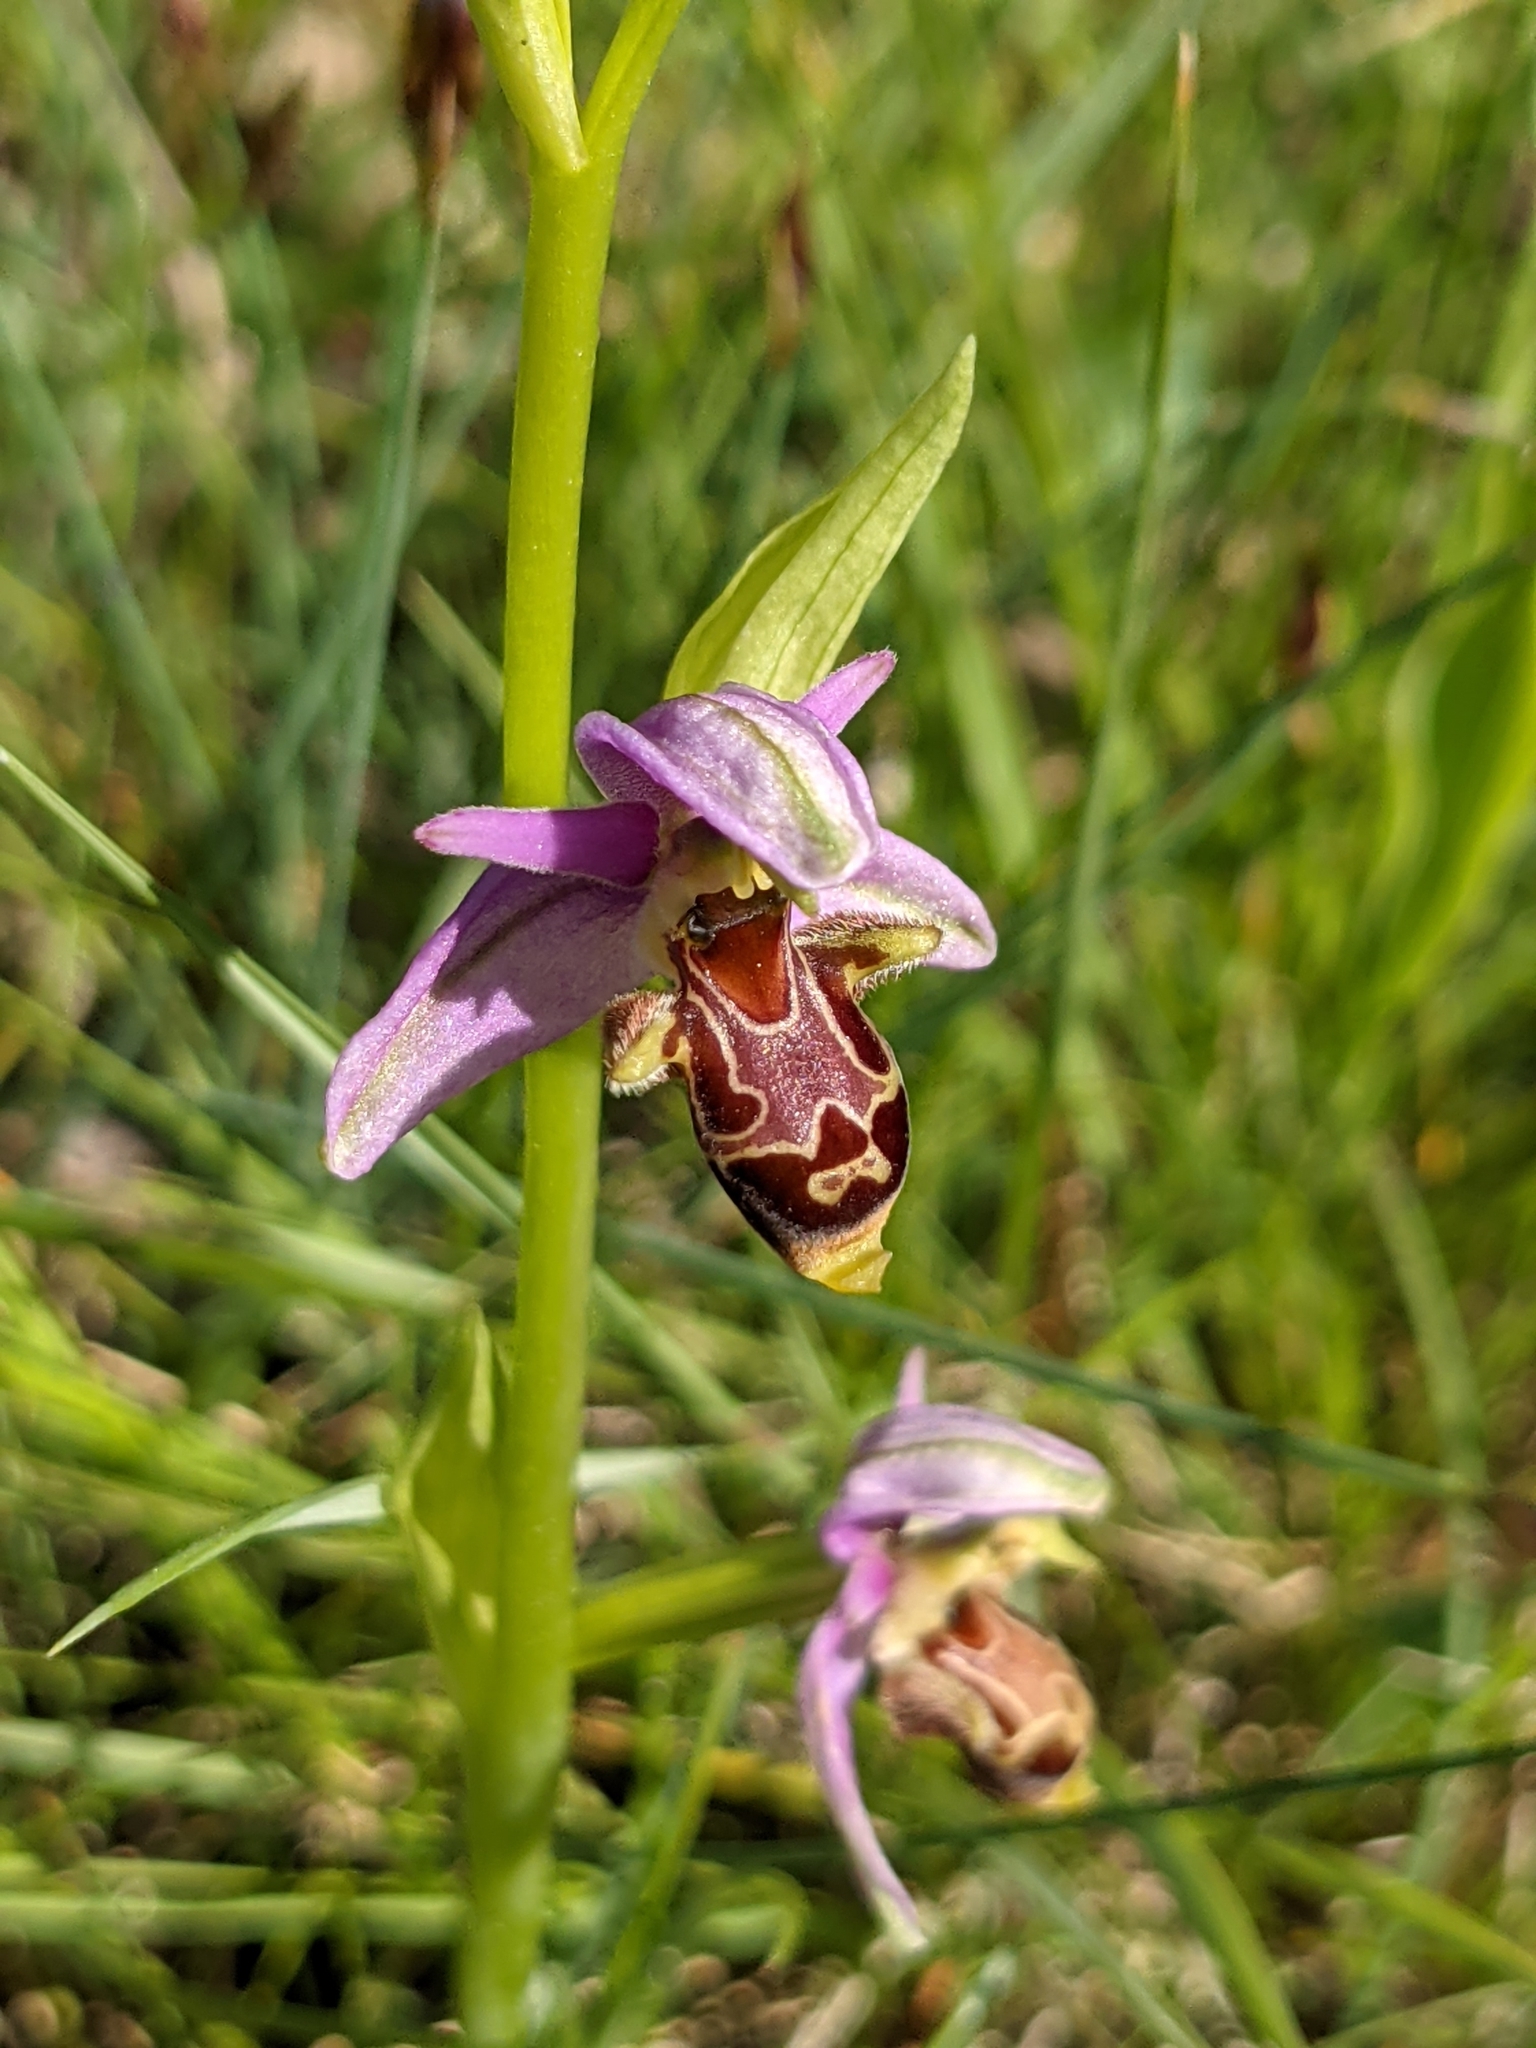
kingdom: Plantae
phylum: Tracheophyta
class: Liliopsida
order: Asparagales
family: Orchidaceae
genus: Ophrys
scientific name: Ophrys scolopax
